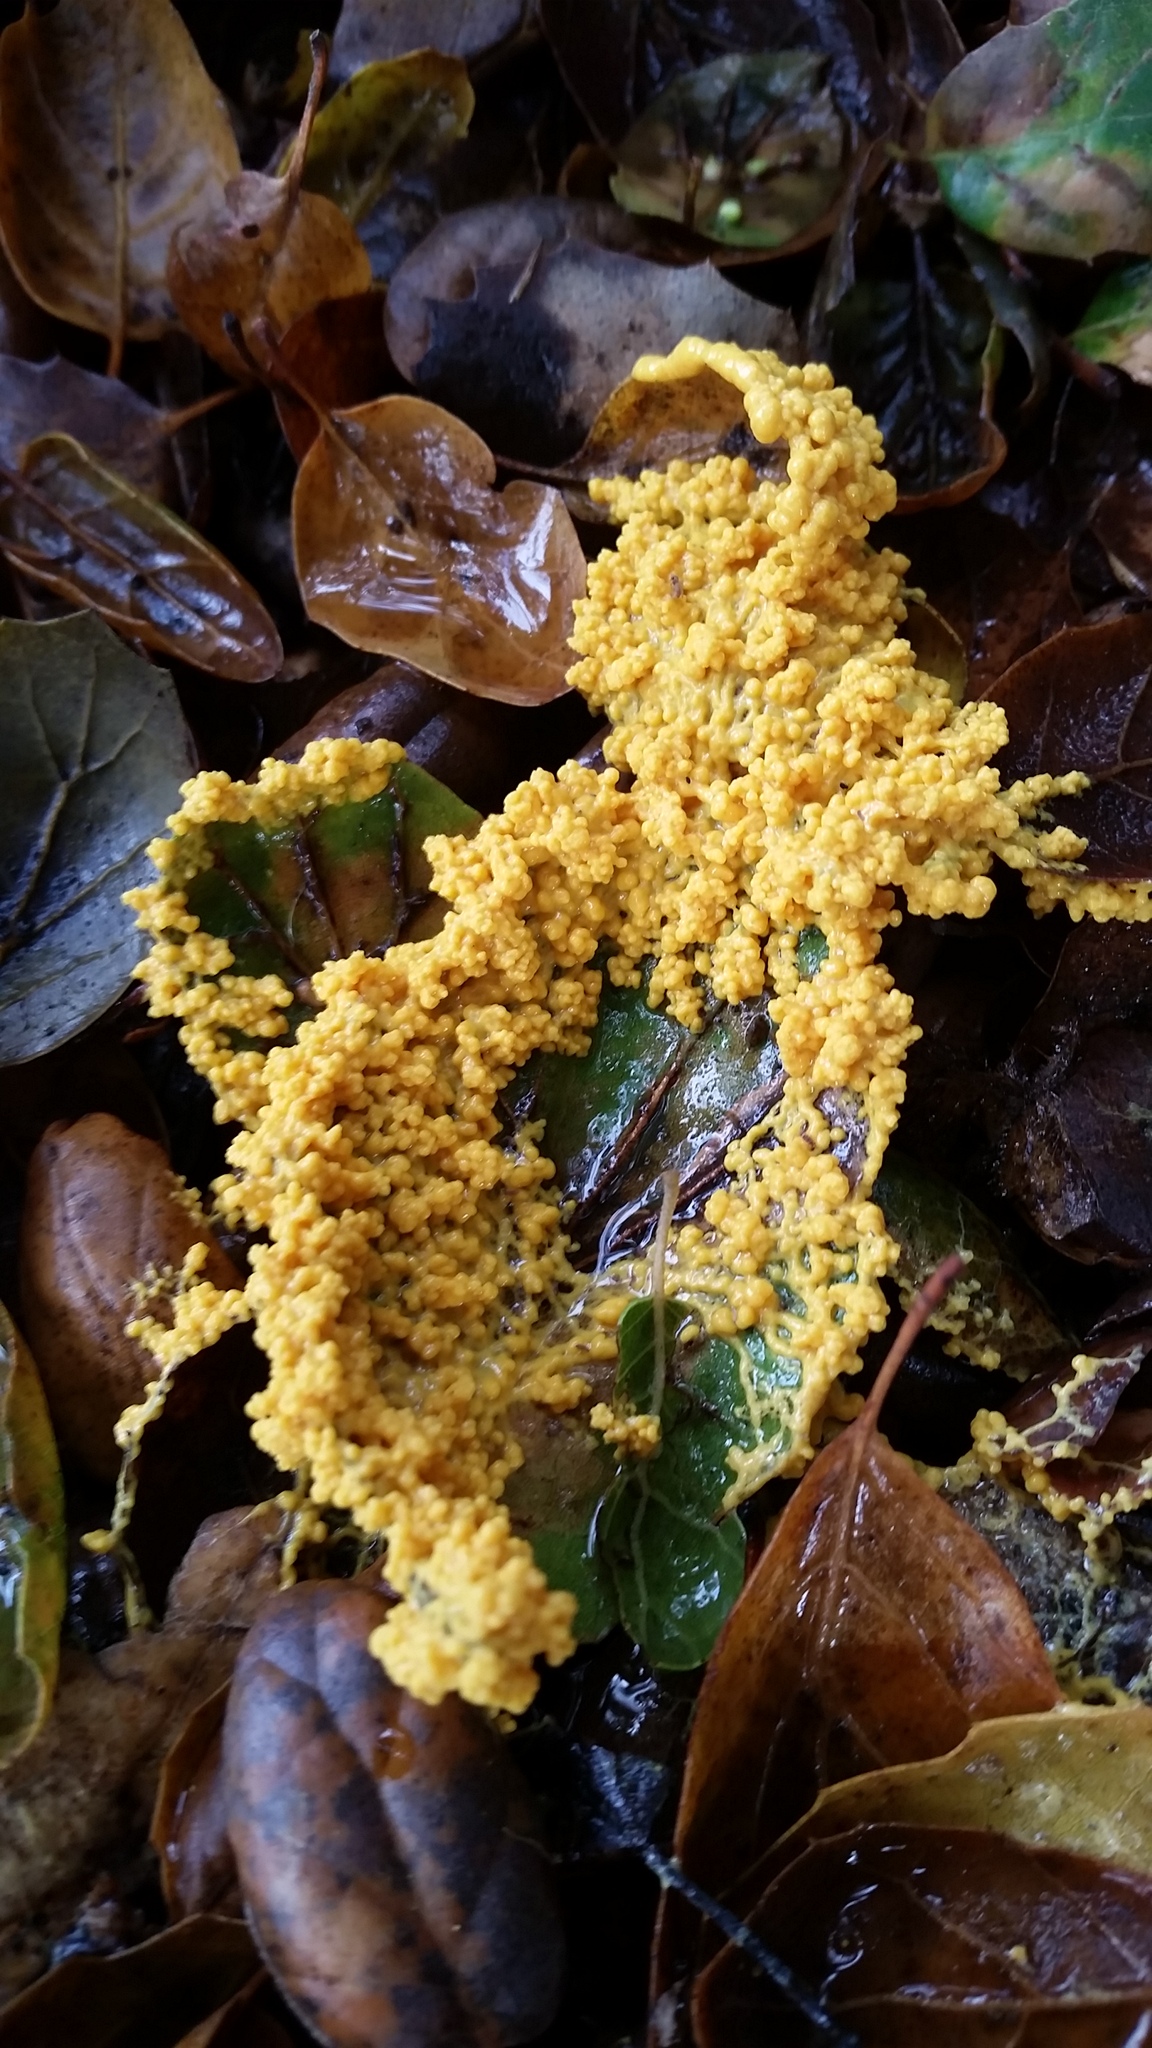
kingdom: Protozoa
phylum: Mycetozoa
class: Myxomycetes
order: Physarales
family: Physaraceae
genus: Fuligo
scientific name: Fuligo septica
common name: Dog vomit slime mold
